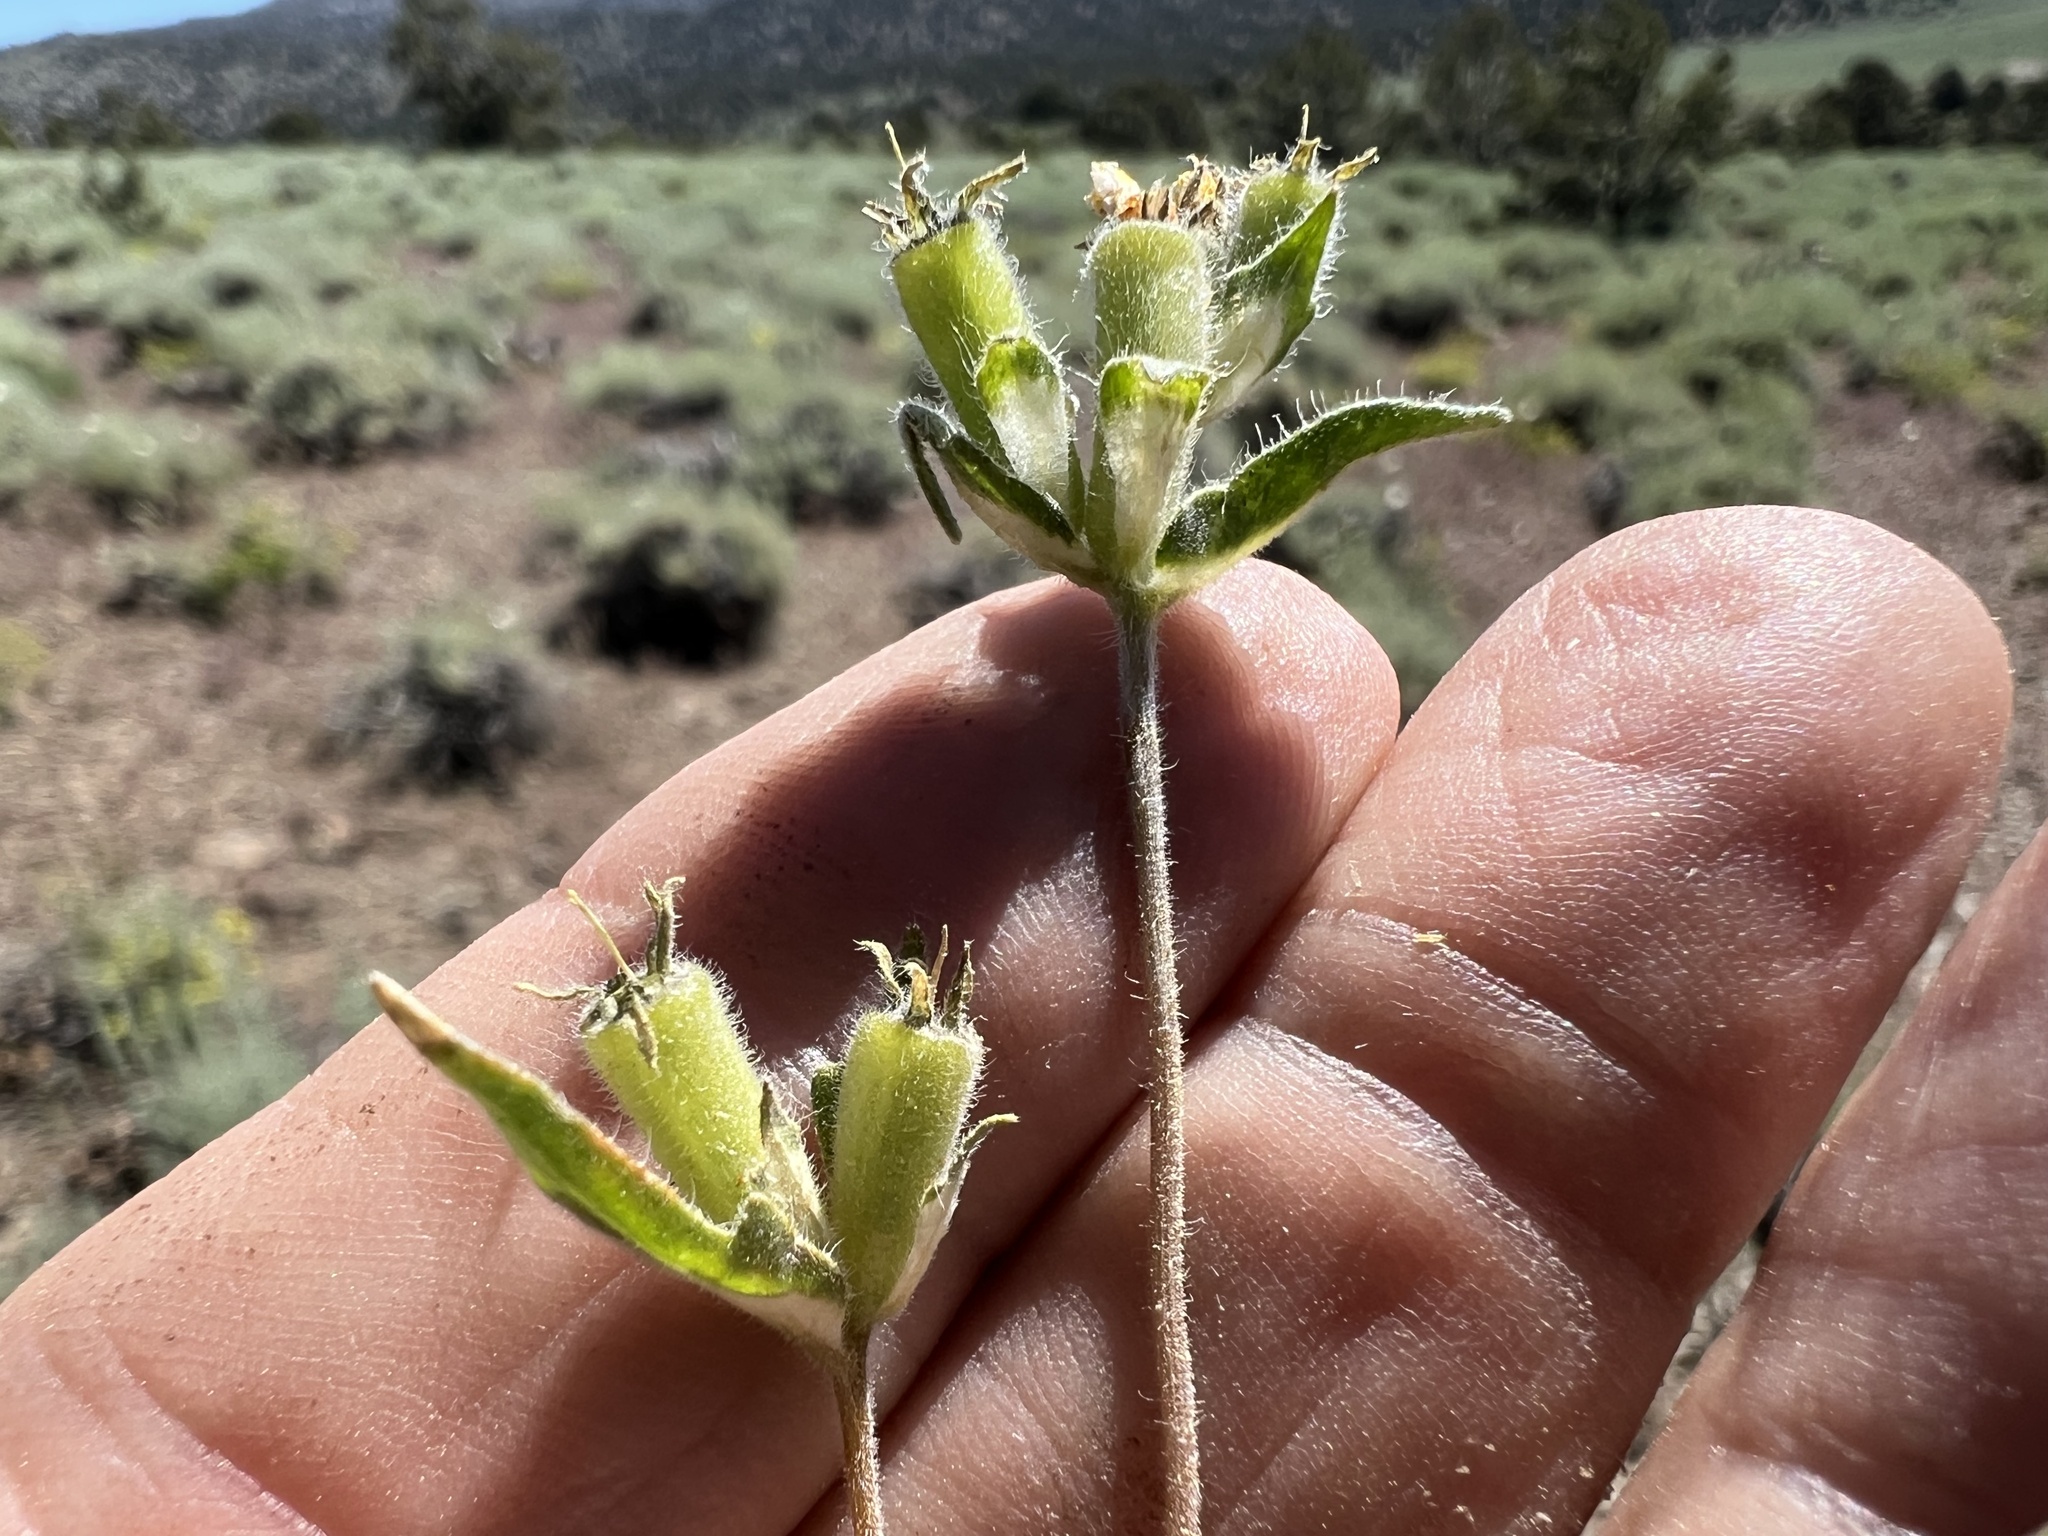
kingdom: Plantae
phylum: Tracheophyta
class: Magnoliopsida
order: Cornales
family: Loasaceae
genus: Mentzelia
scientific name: Mentzelia montana
